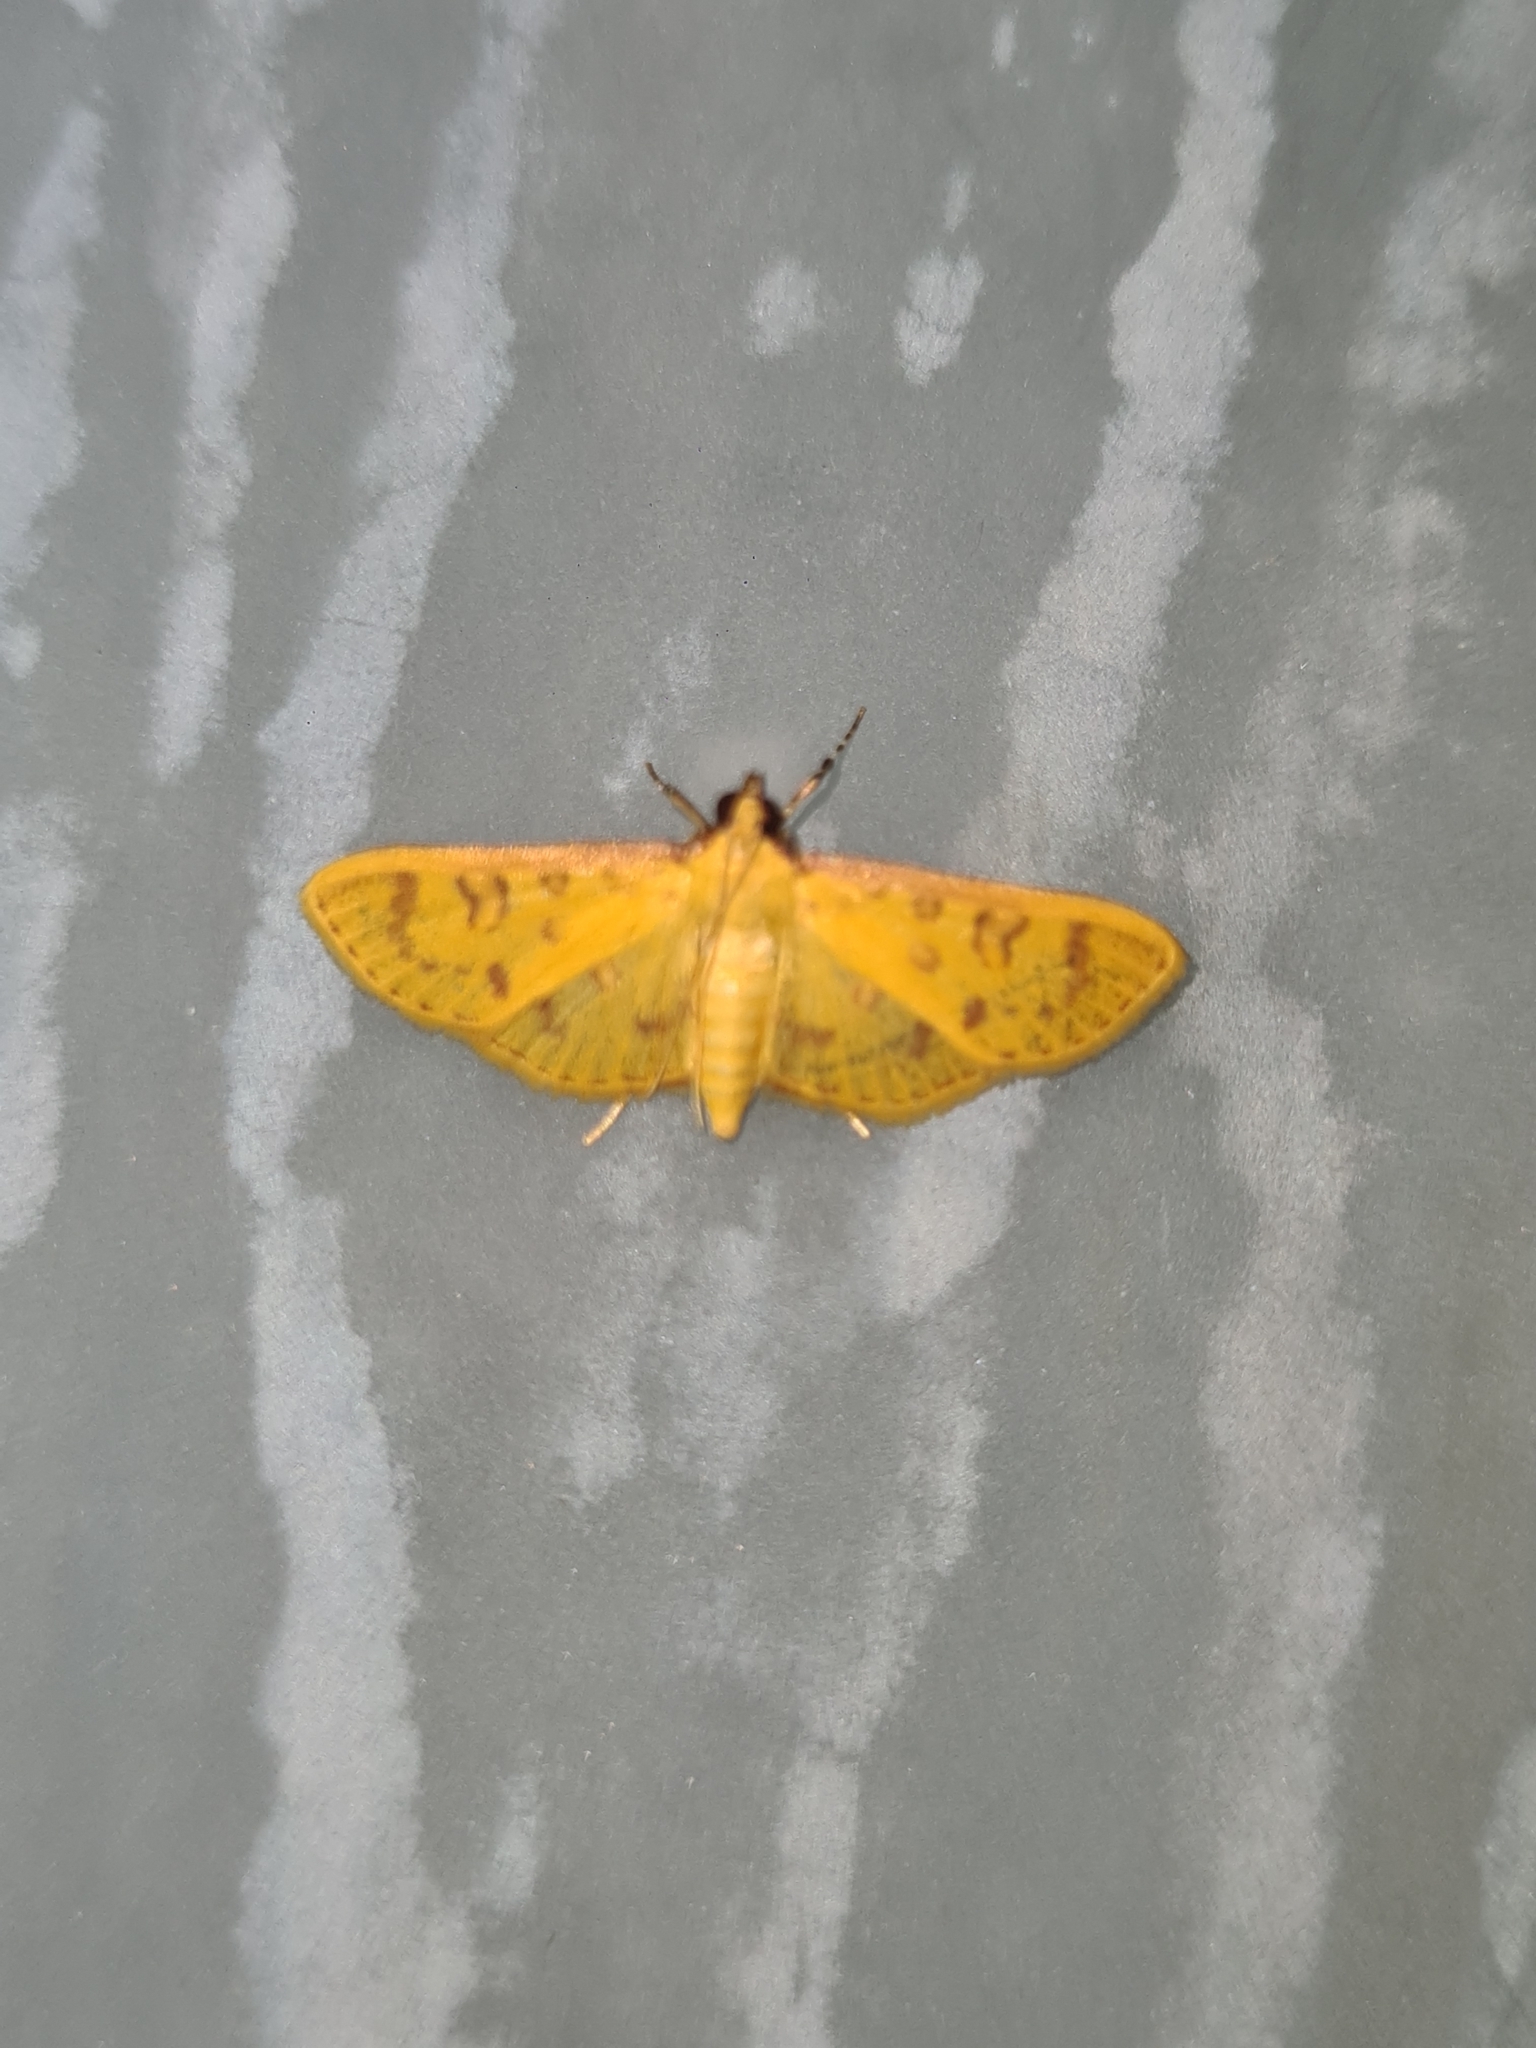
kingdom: Animalia
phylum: Arthropoda
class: Insecta
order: Lepidoptera
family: Crambidae
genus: Trithyris
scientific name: Trithyris
